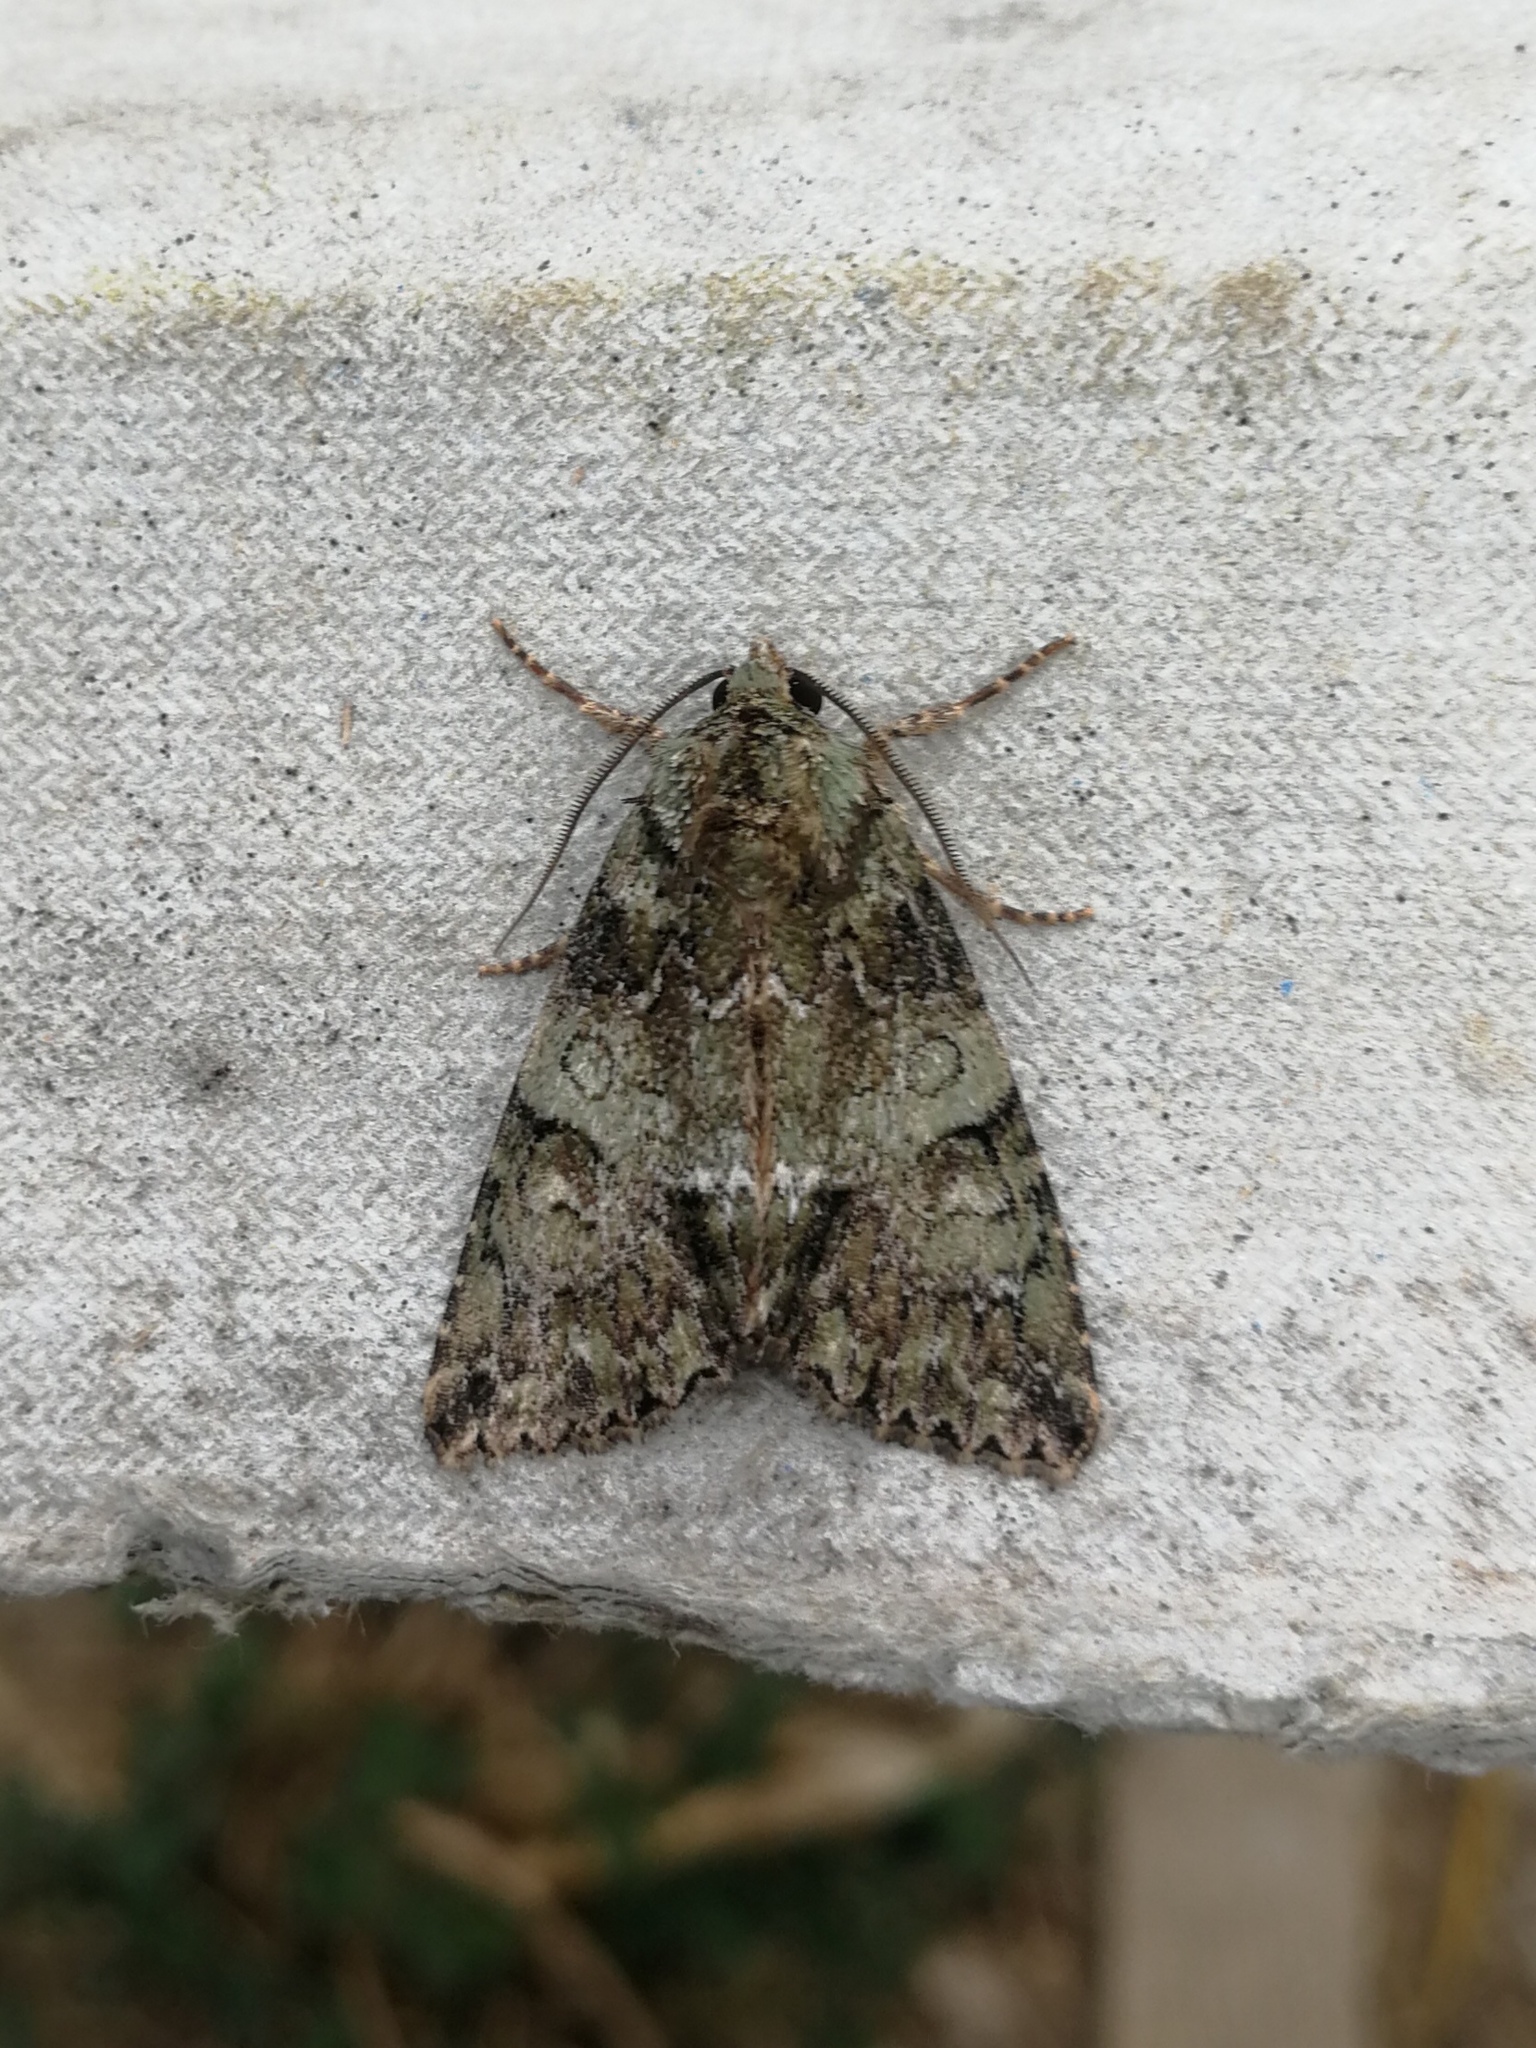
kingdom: Animalia
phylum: Arthropoda
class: Insecta
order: Lepidoptera
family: Noctuidae
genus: Polyphaenis
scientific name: Polyphaenis sericata
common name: Guernsey underwing
